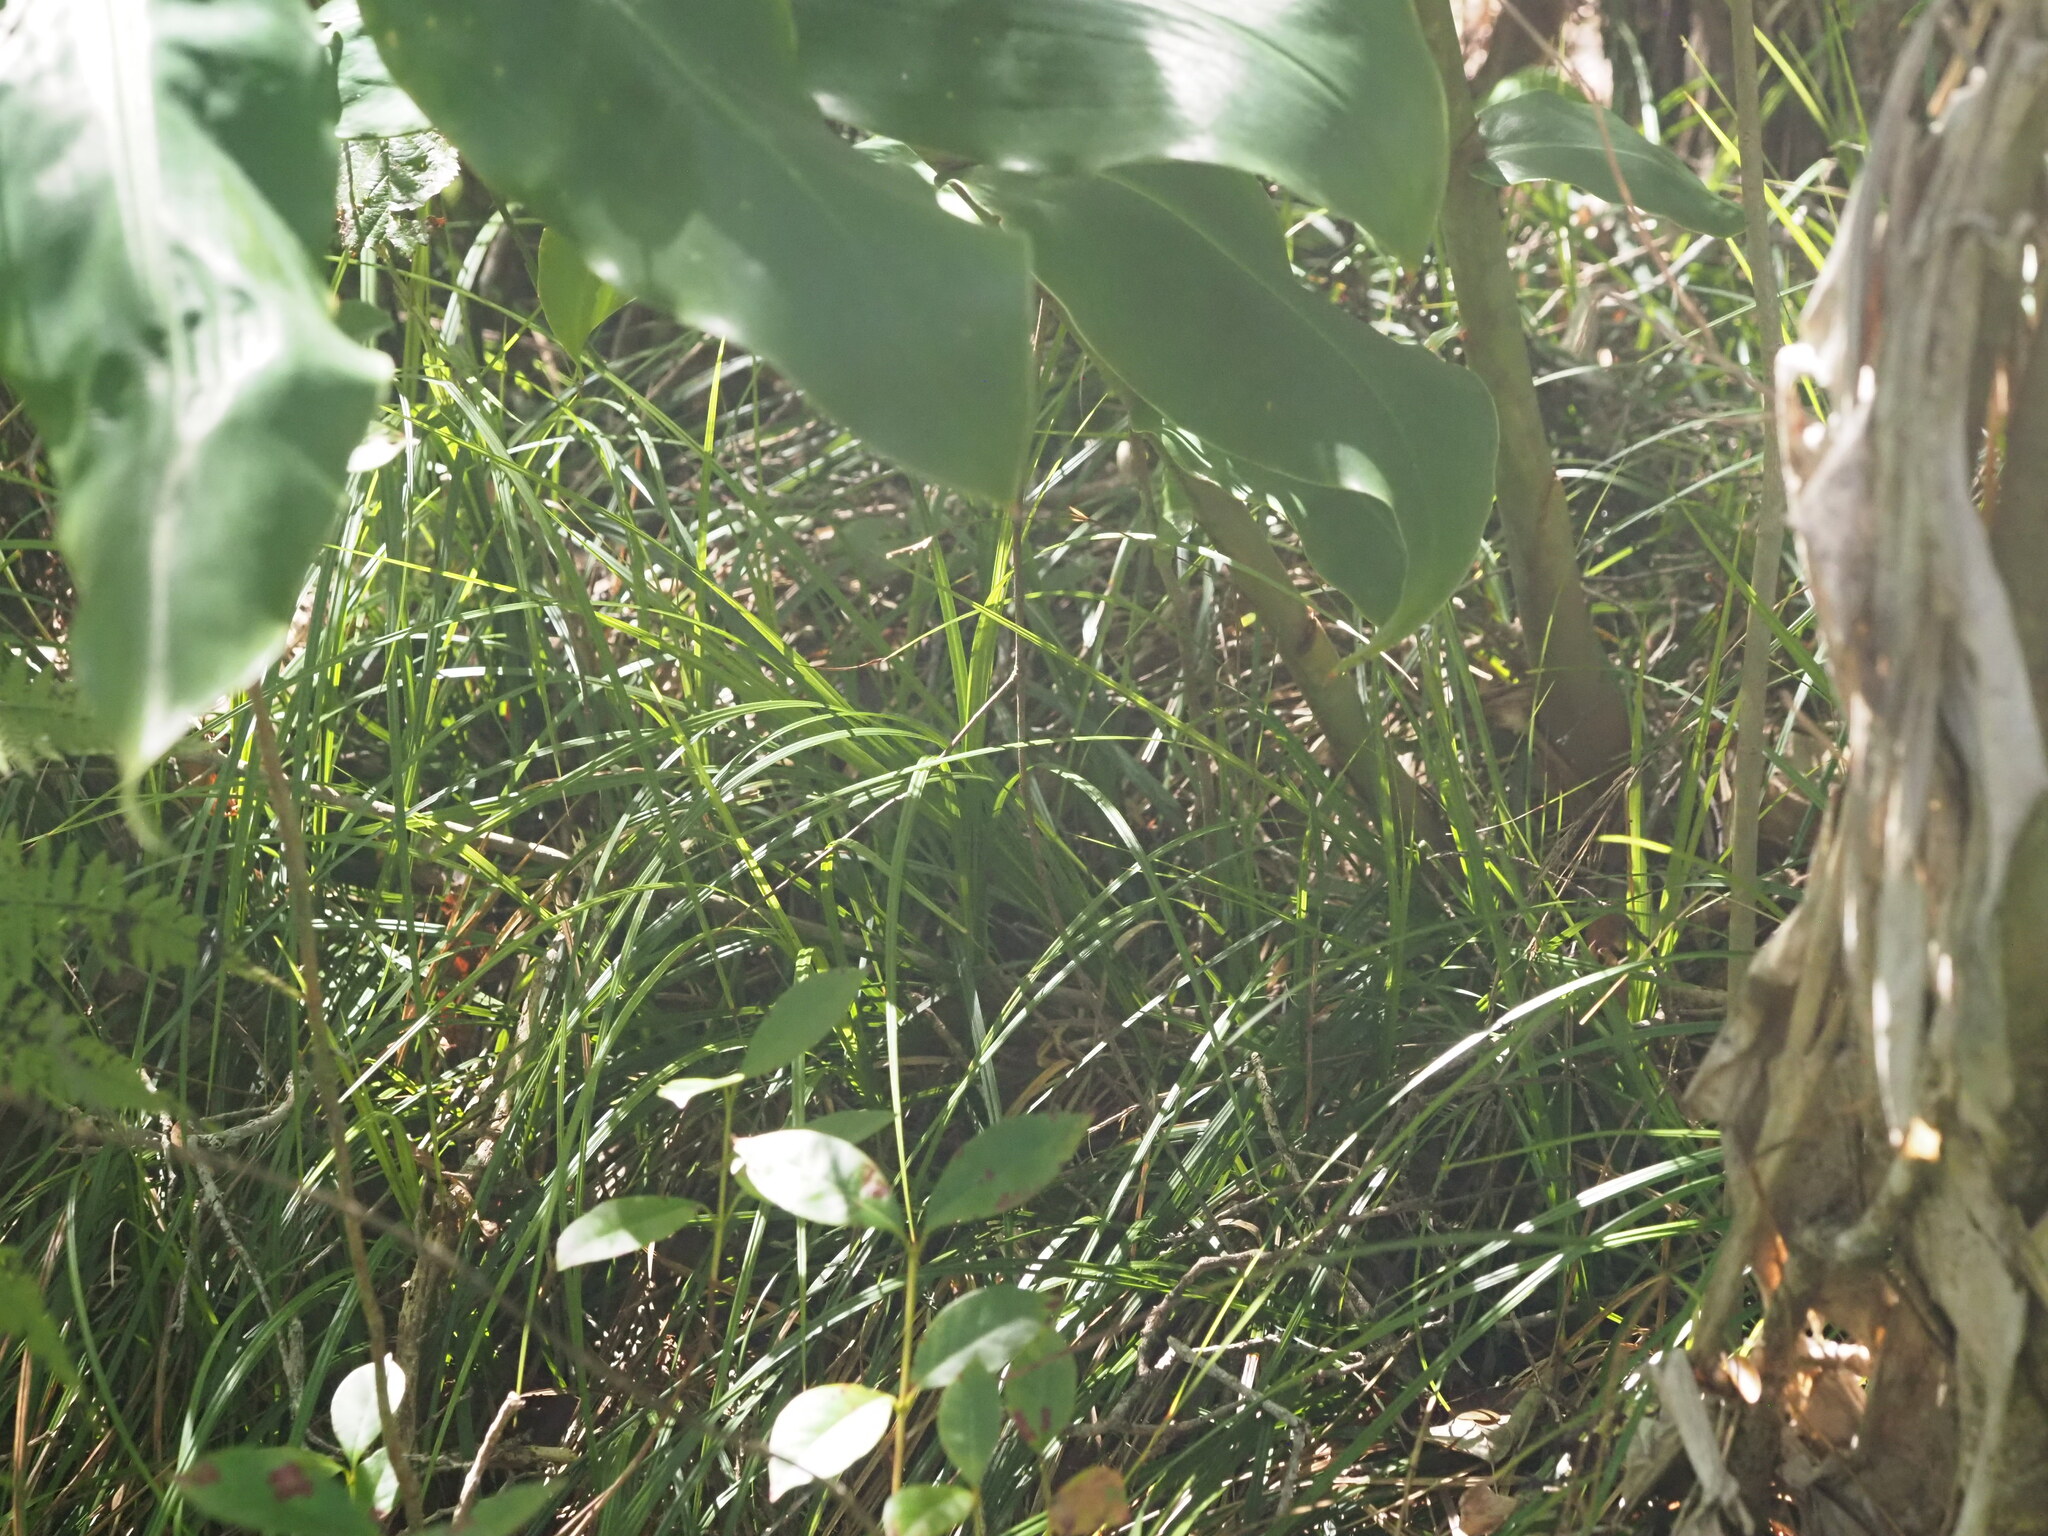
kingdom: Plantae
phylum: Tracheophyta
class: Liliopsida
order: Poales
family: Cyperaceae
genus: Carex
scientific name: Carex meyenii
